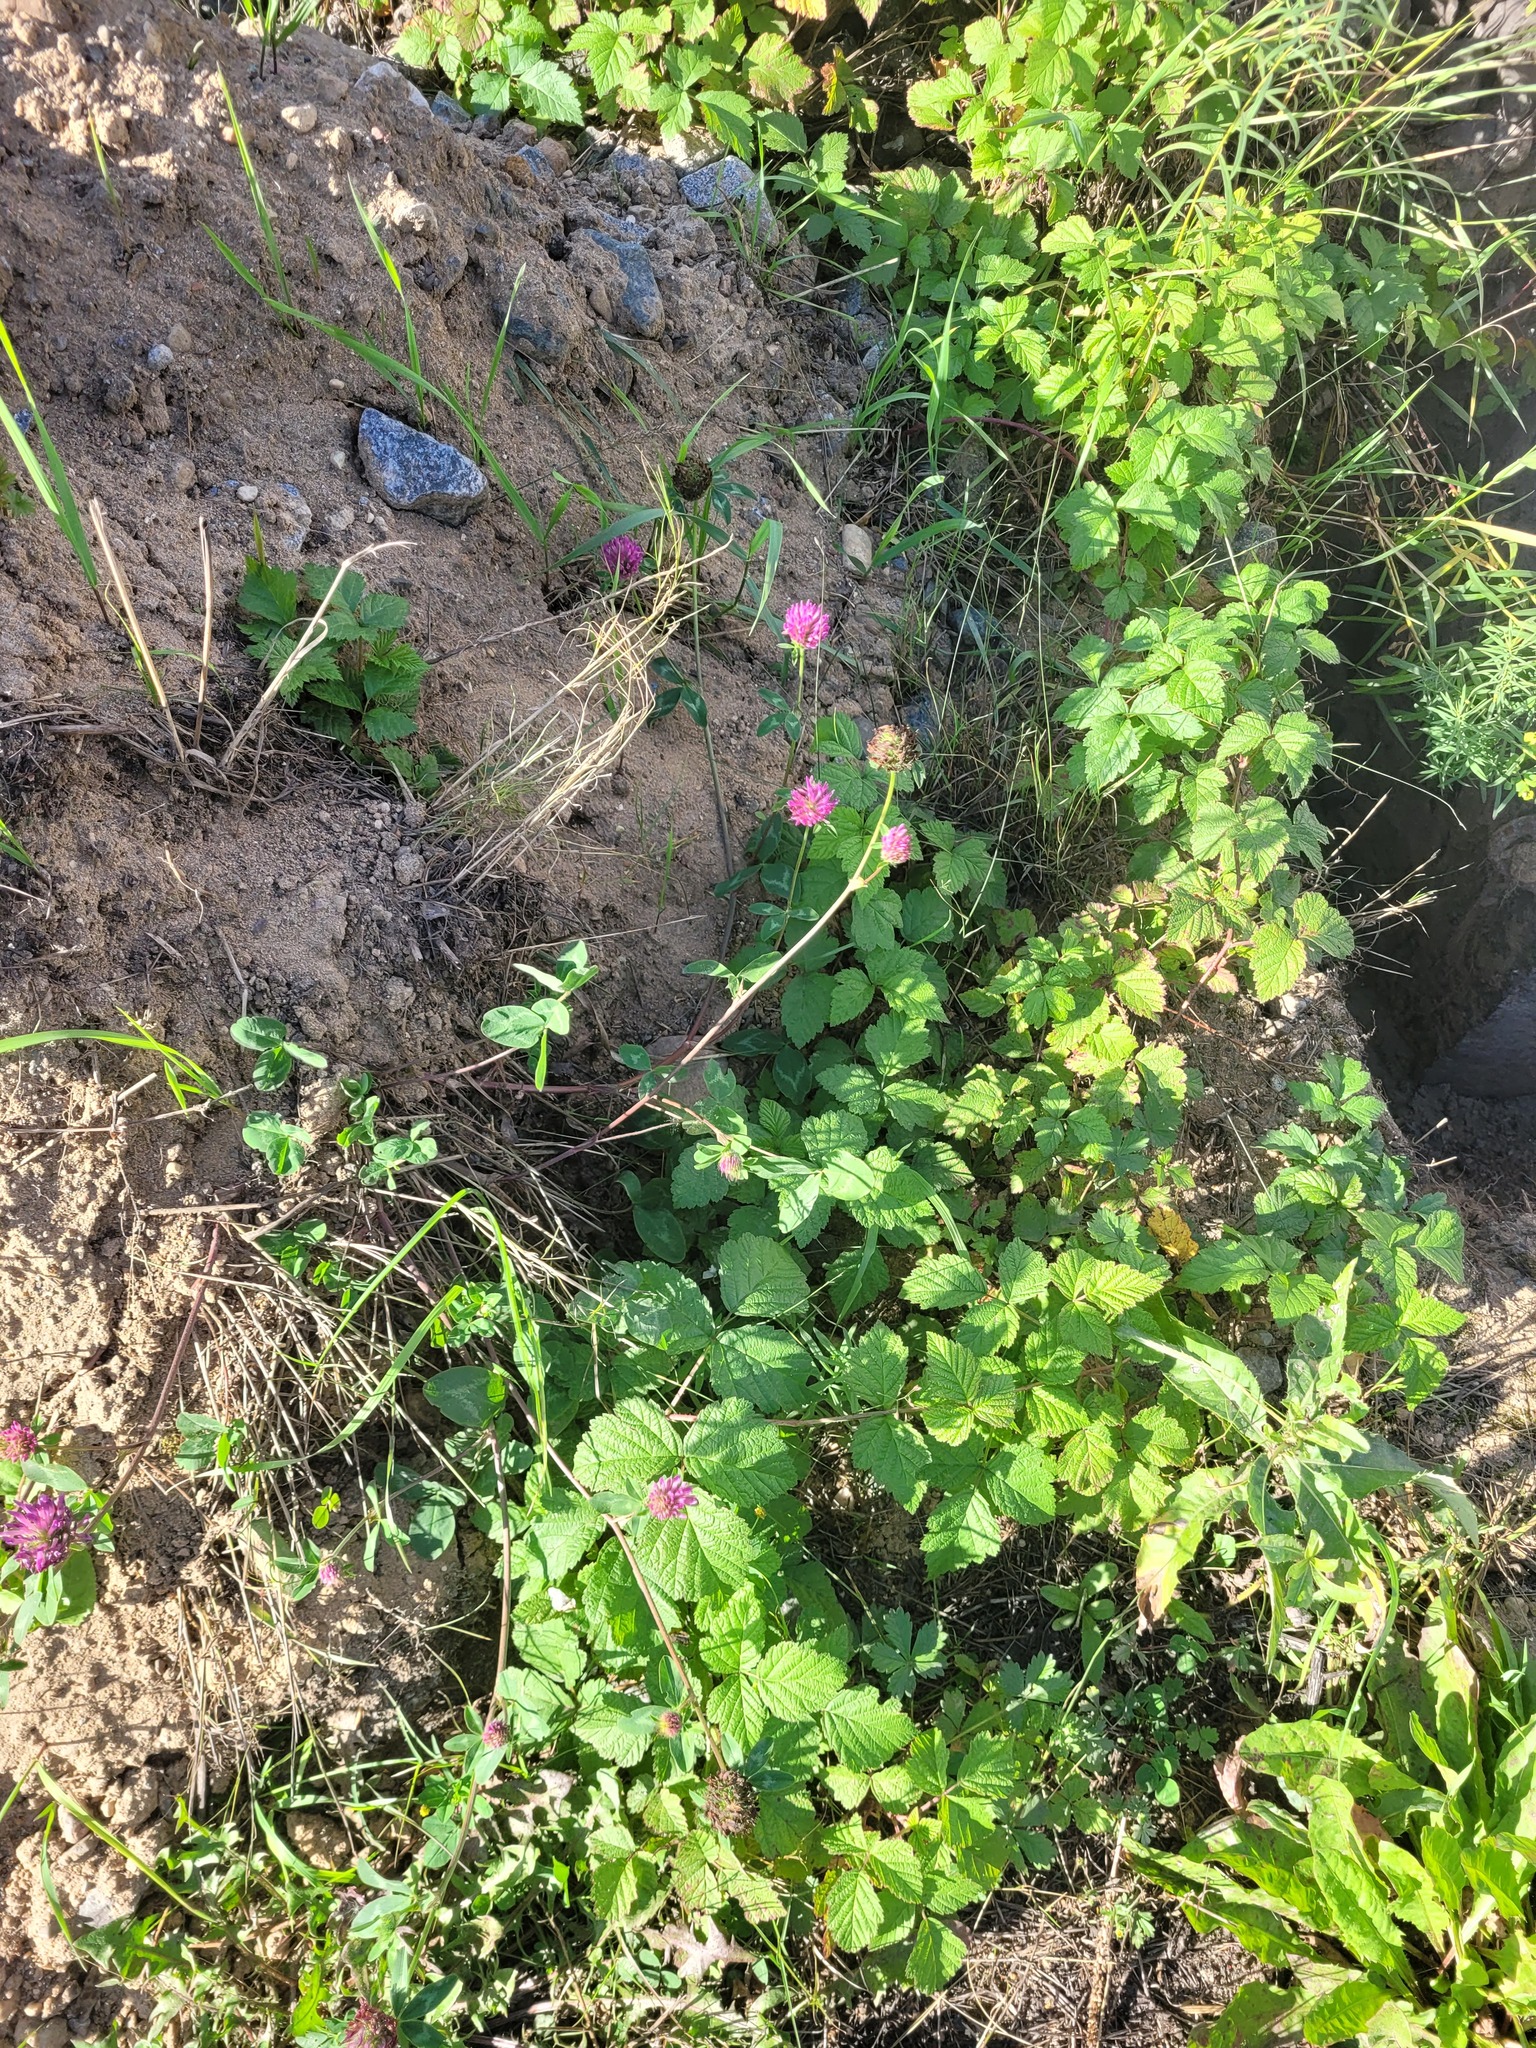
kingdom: Plantae
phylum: Tracheophyta
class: Magnoliopsida
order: Fabales
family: Fabaceae
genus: Trifolium
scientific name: Trifolium pratense
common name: Red clover
